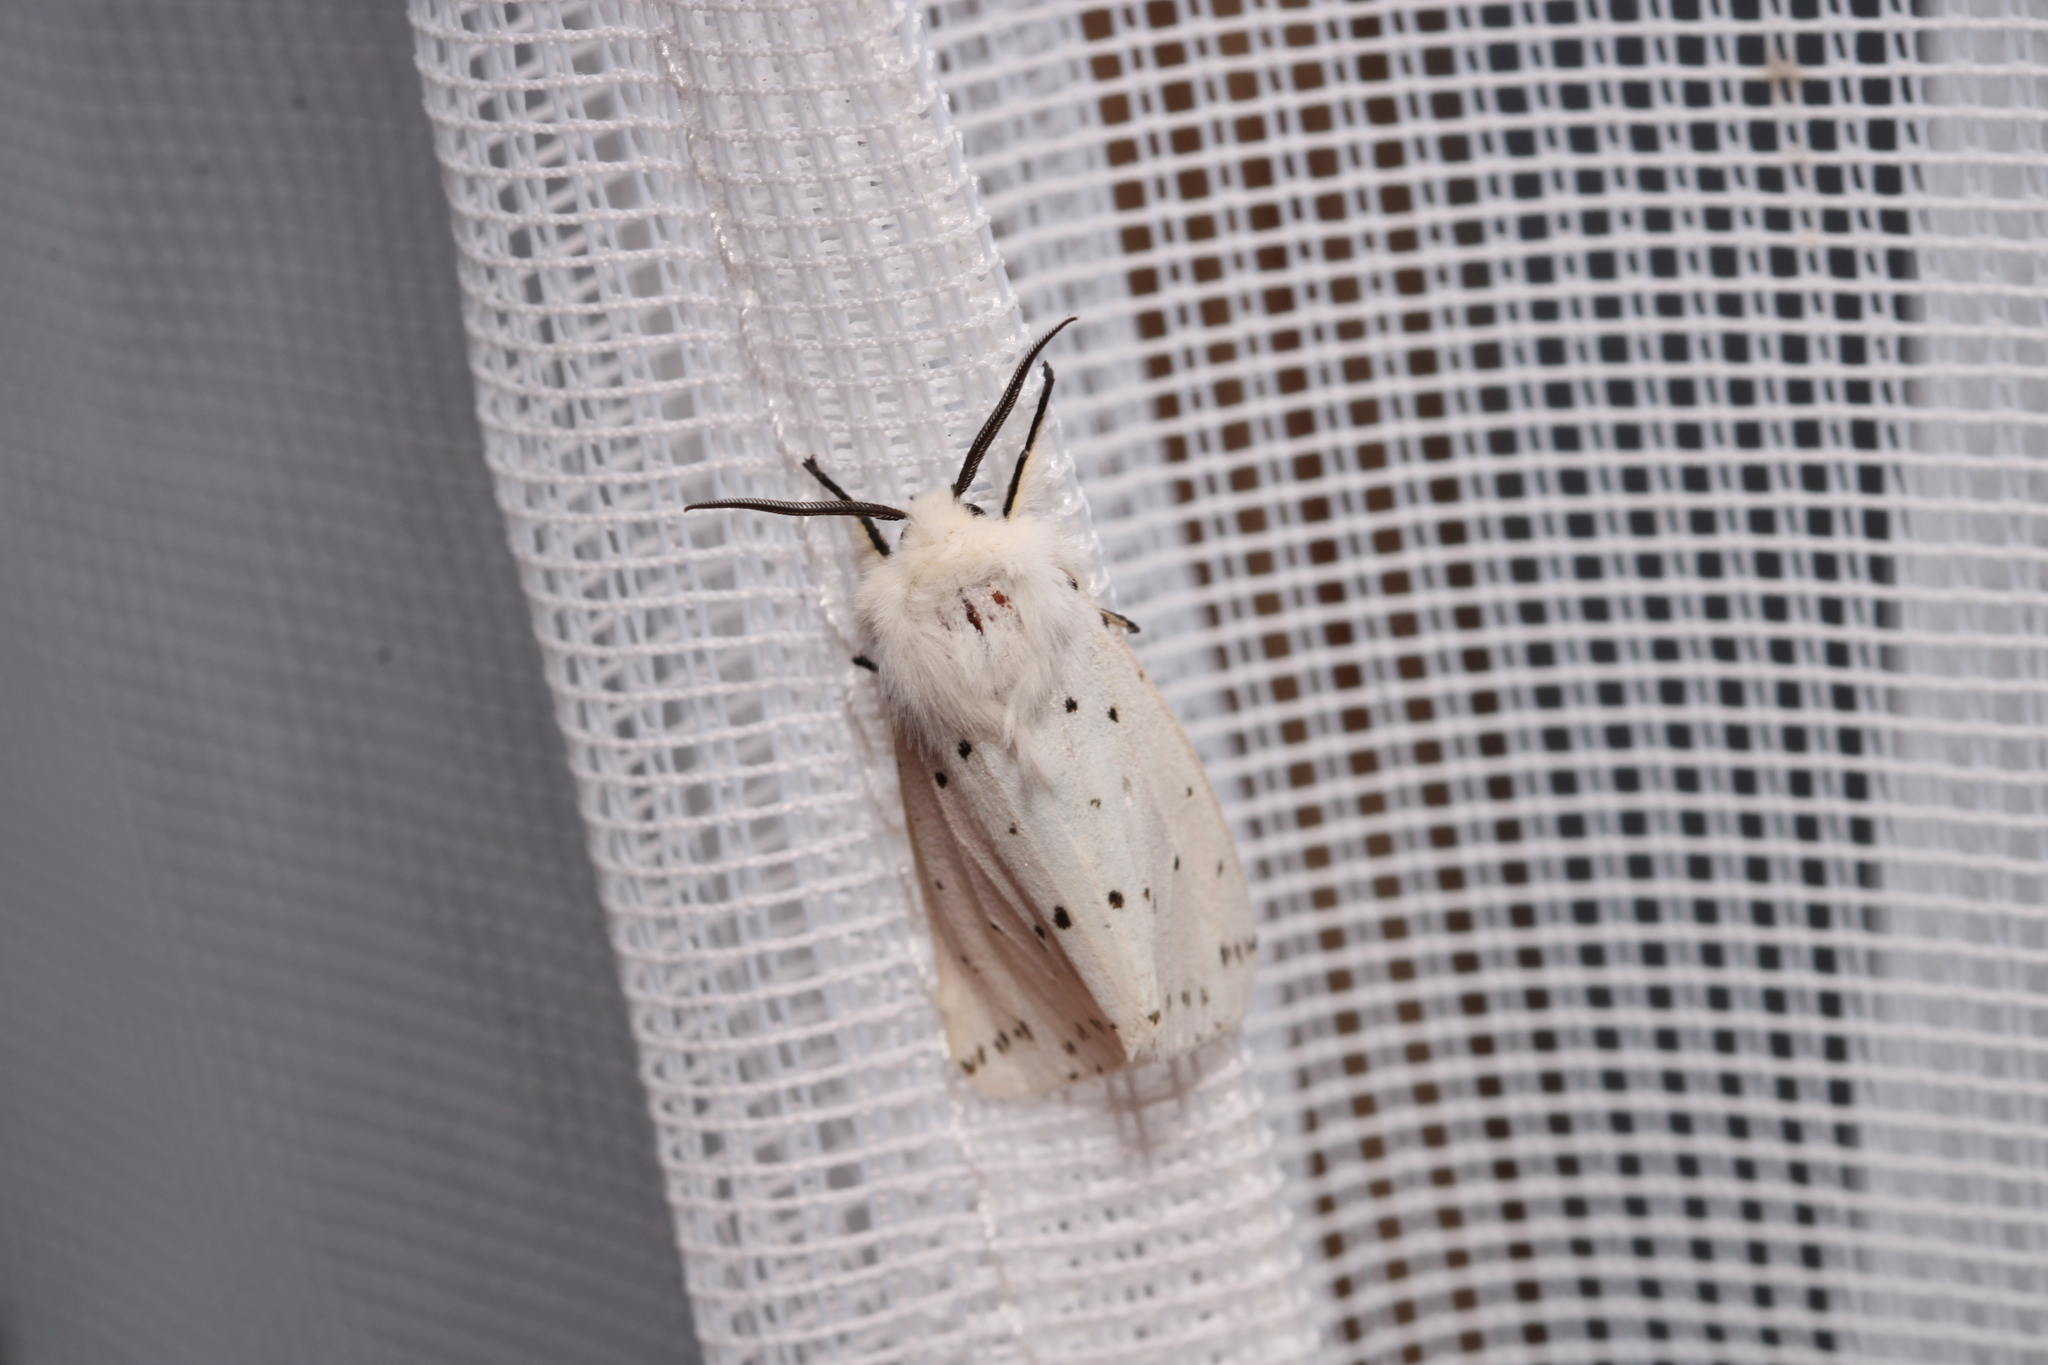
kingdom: Animalia
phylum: Arthropoda
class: Insecta
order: Lepidoptera
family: Erebidae
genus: Spilosoma
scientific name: Spilosoma lubricipeda
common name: White ermine
